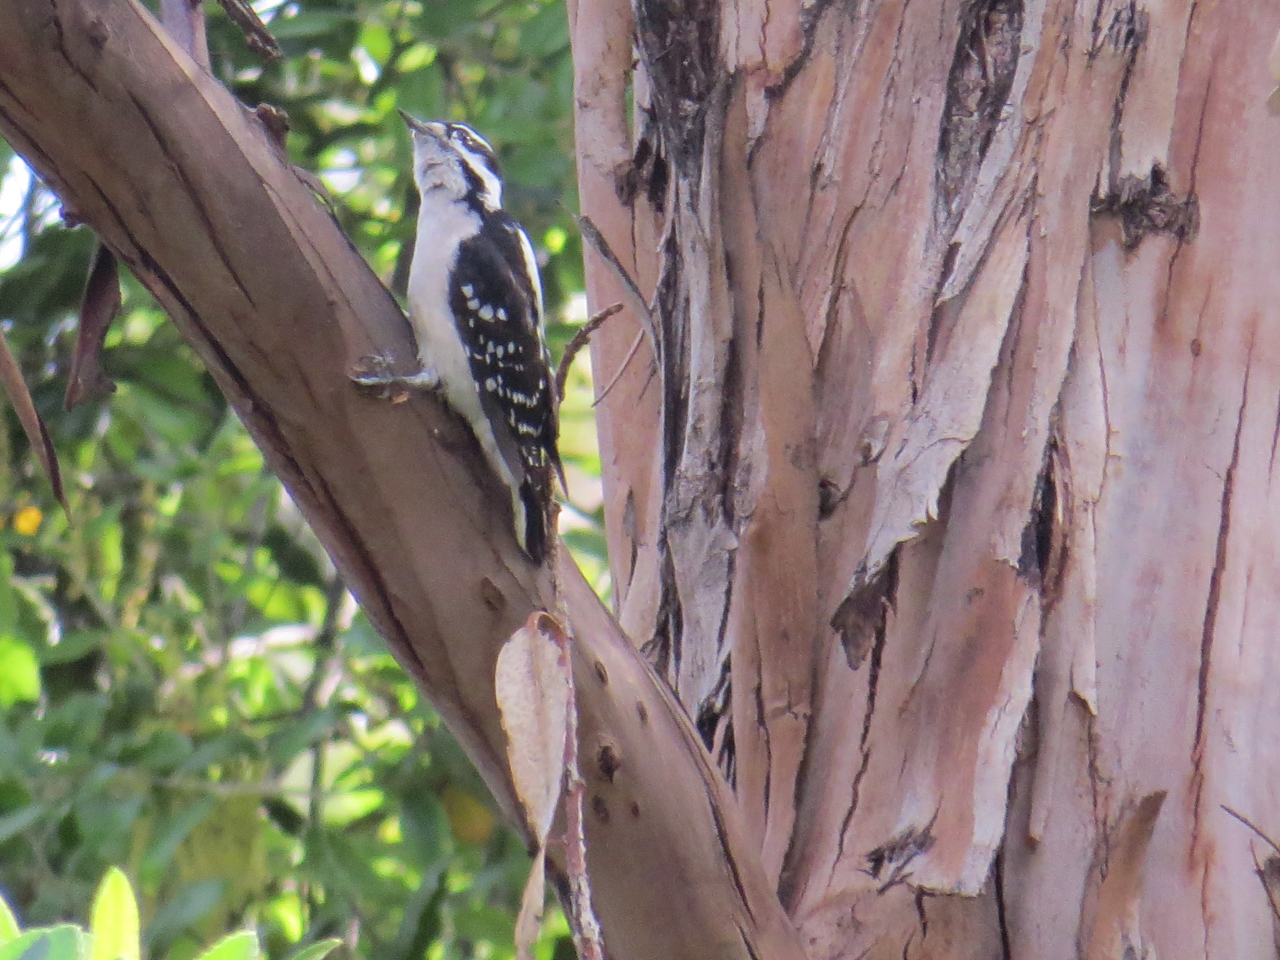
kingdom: Animalia
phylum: Chordata
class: Aves
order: Piciformes
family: Picidae
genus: Dryobates
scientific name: Dryobates pubescens
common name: Downy woodpecker
